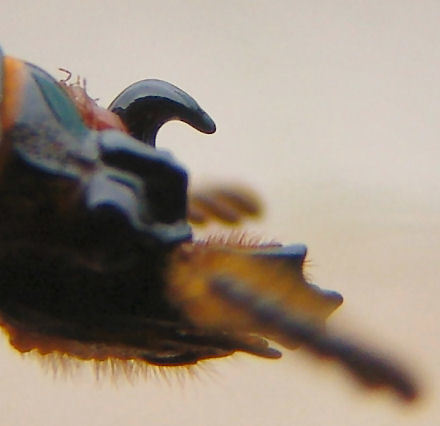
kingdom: Animalia
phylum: Arthropoda
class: Insecta
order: Coleoptera
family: Passalidae
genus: Odontotaenius
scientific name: Odontotaenius disjunctus
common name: Patent leather beetle
